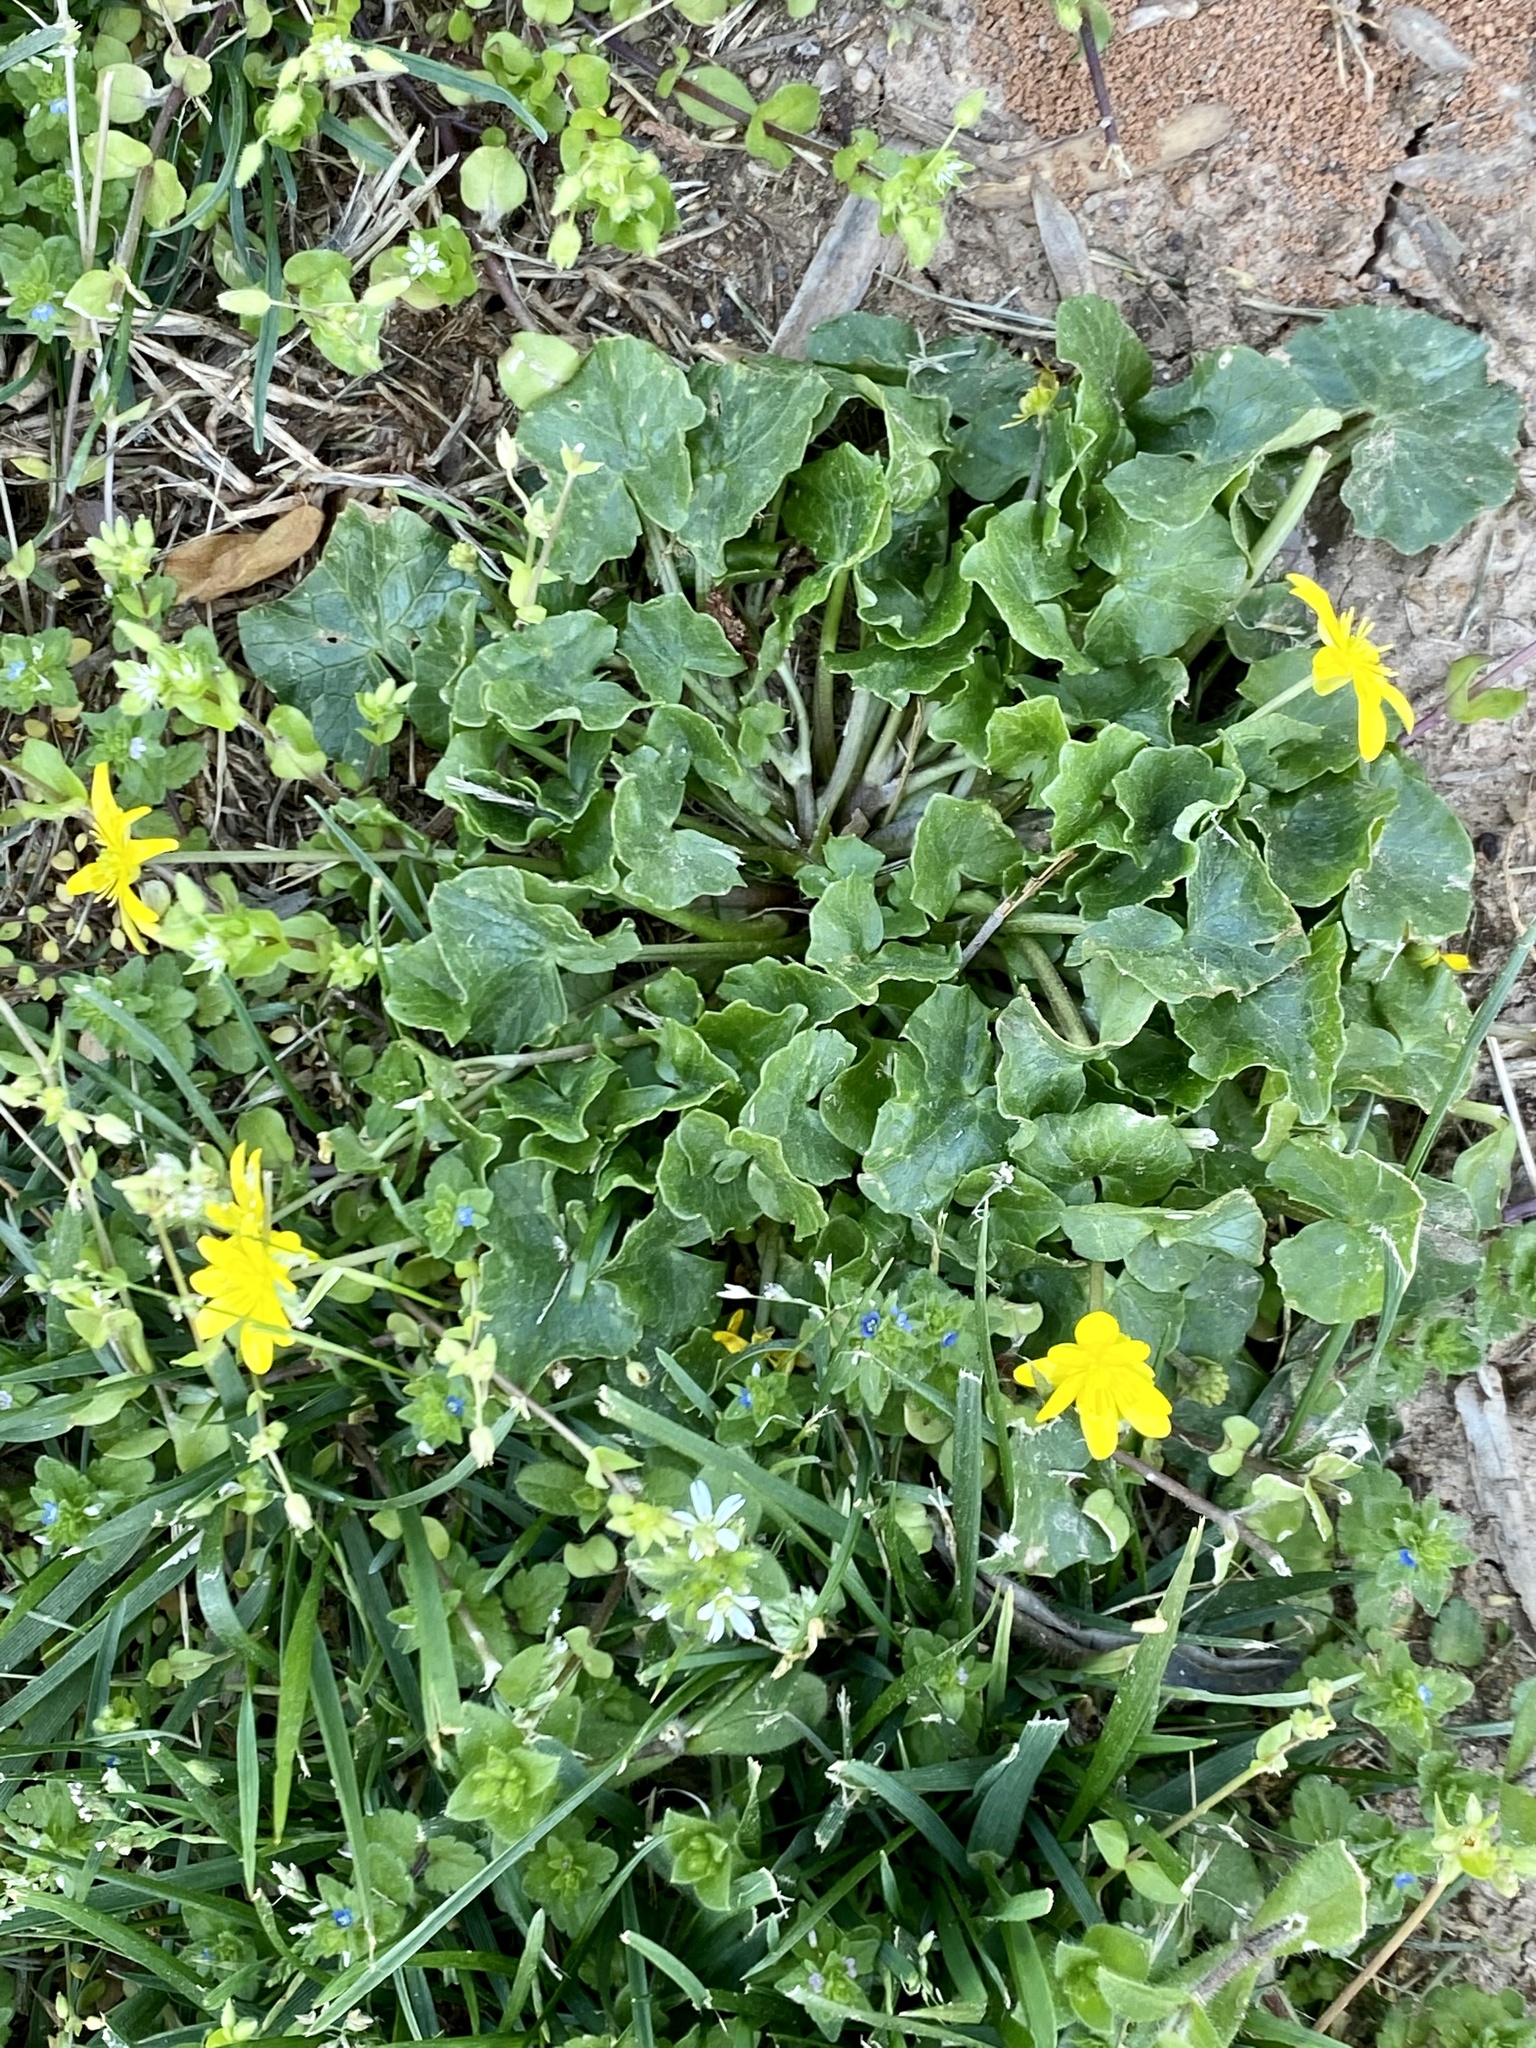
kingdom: Plantae
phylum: Tracheophyta
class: Magnoliopsida
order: Ranunculales
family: Ranunculaceae
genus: Ficaria
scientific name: Ficaria verna
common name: Lesser celandine
